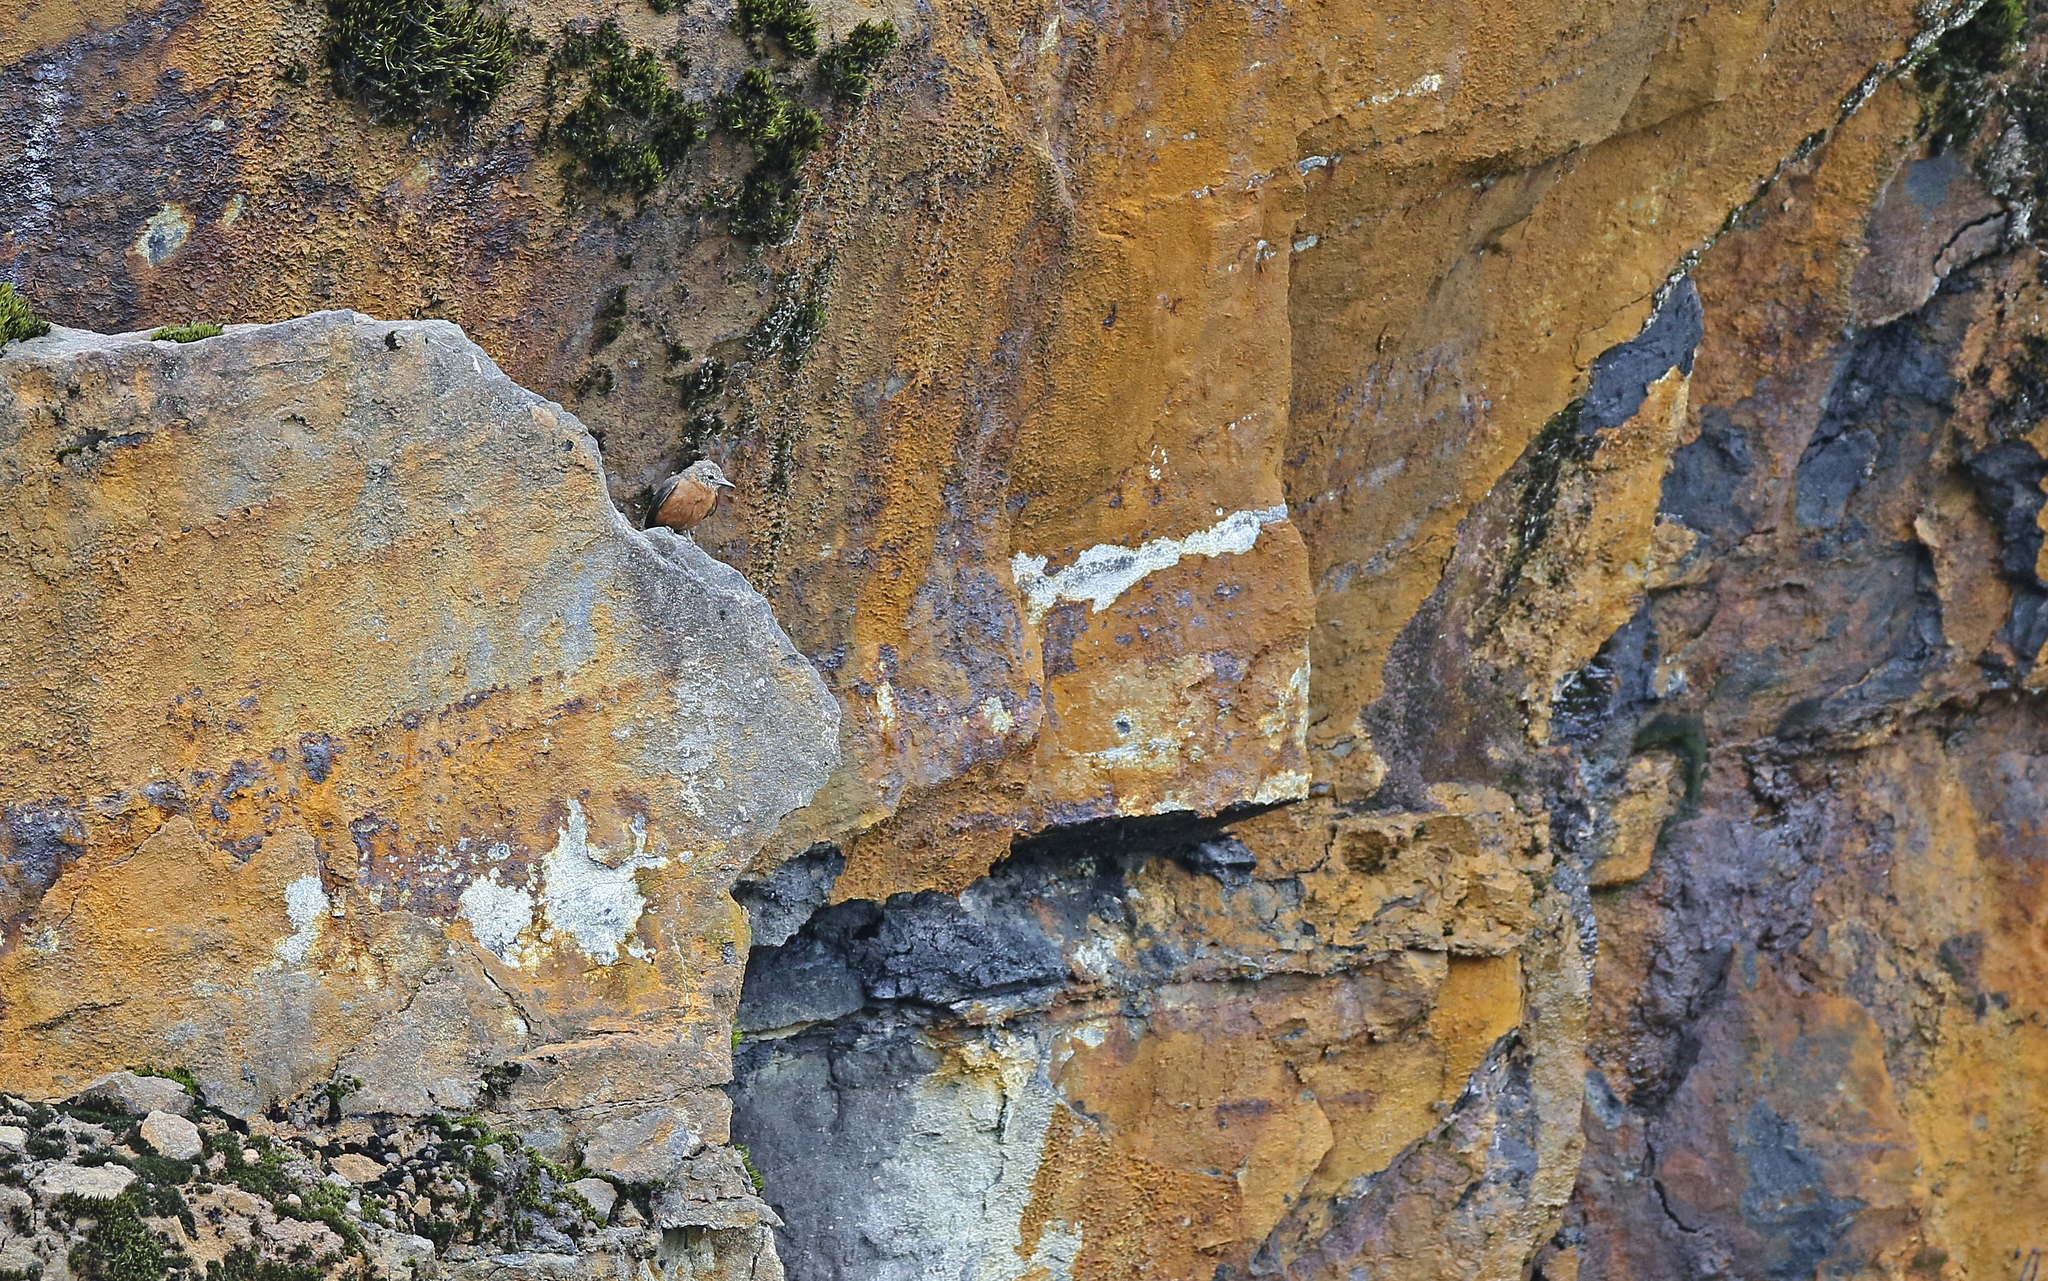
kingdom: Animalia
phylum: Chordata
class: Aves
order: Passeriformes
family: Tyrannidae
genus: Hirundinea
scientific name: Hirundinea ferruginea
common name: Cliff flycatcher
